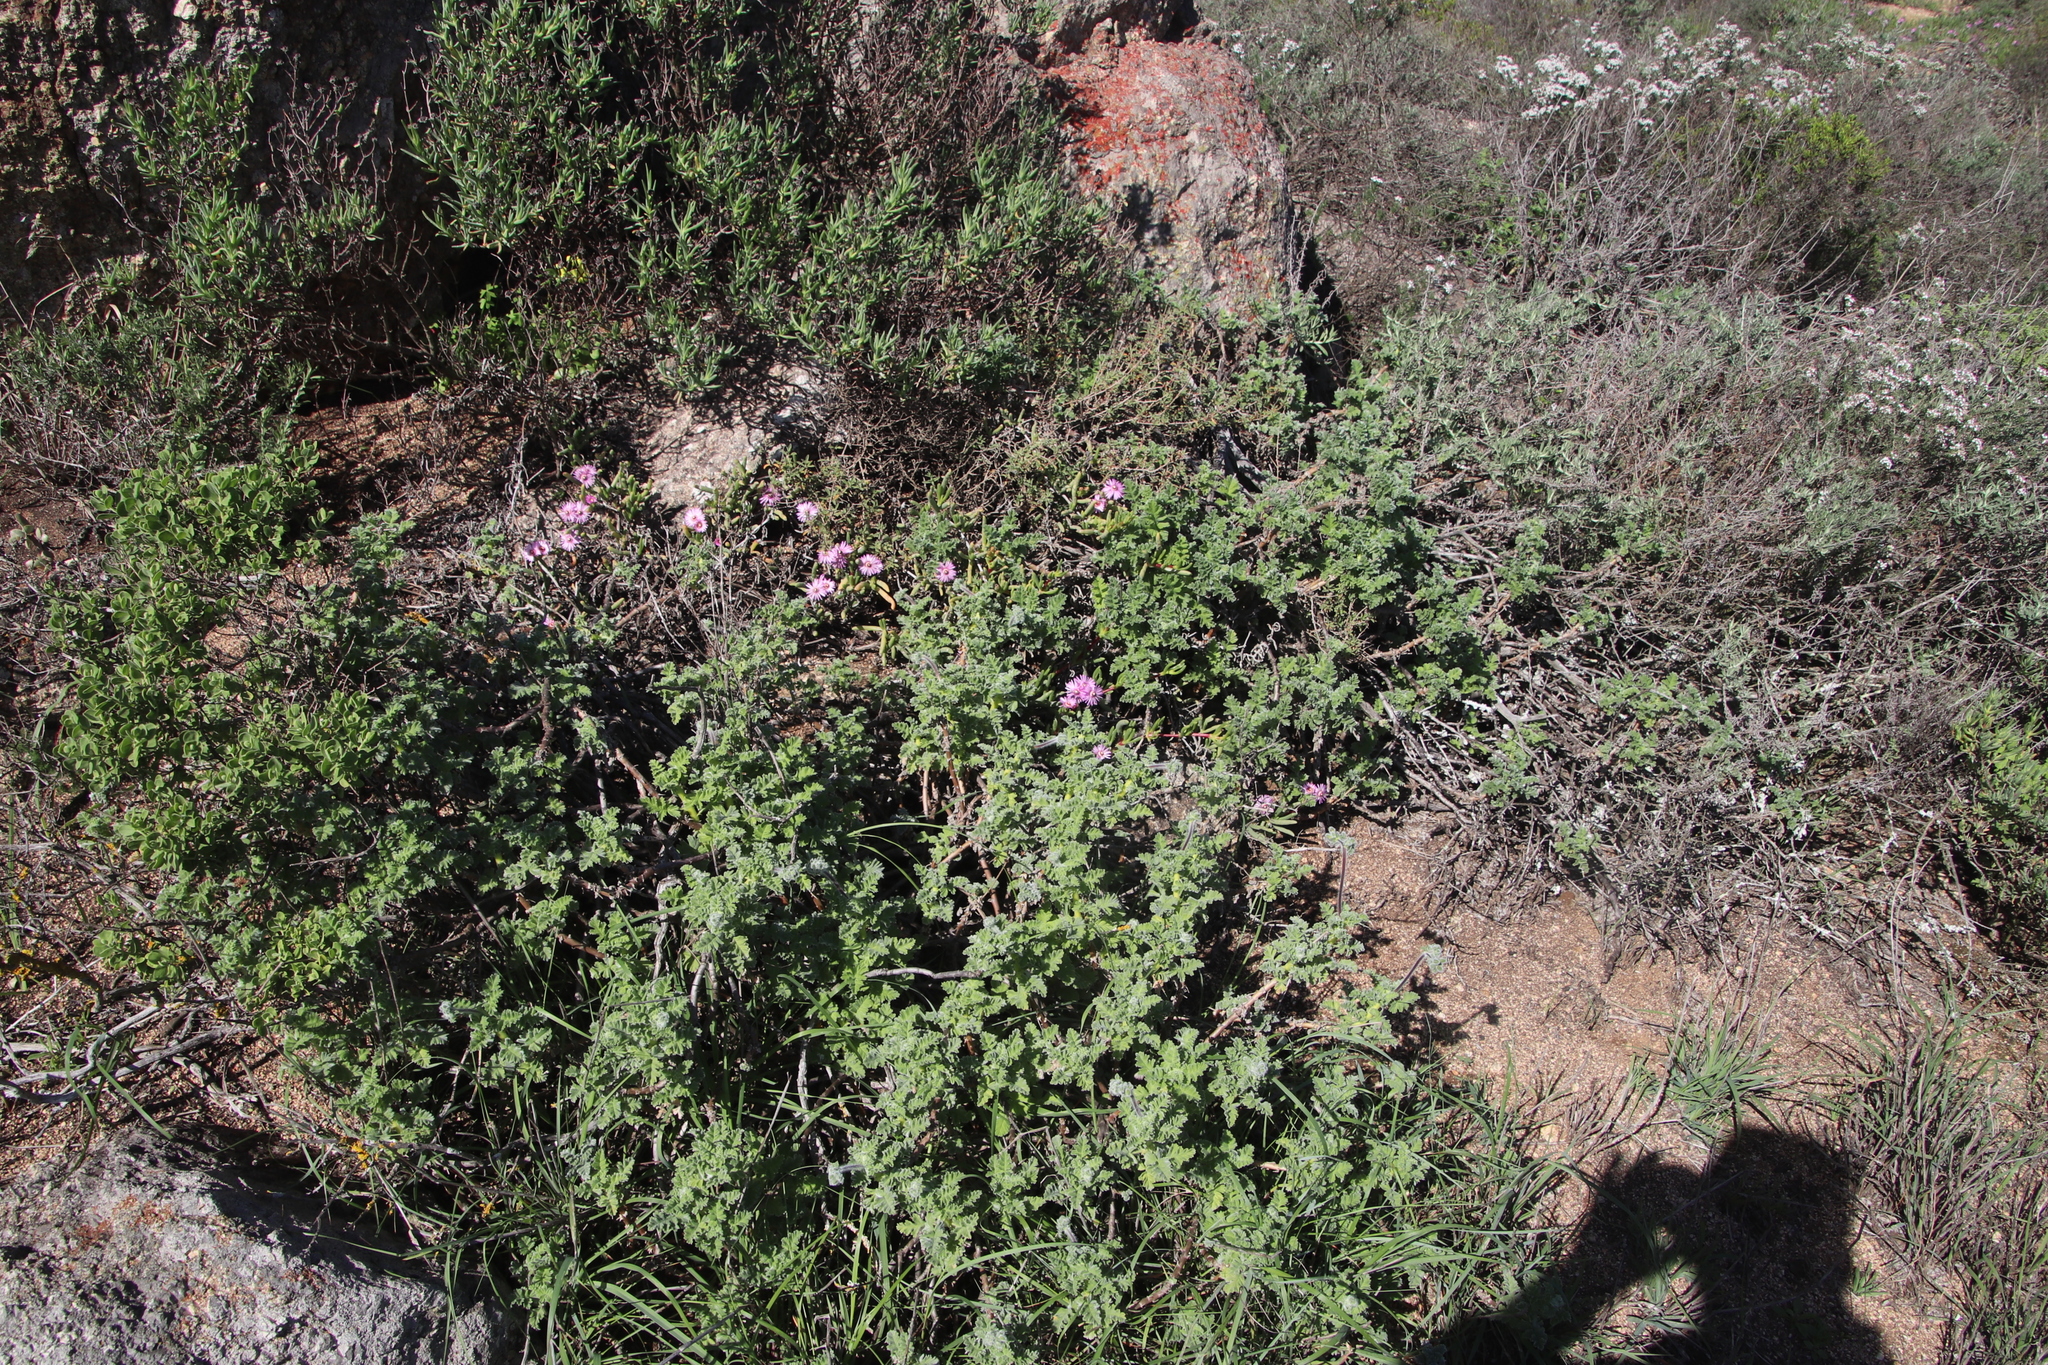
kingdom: Plantae
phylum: Tracheophyta
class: Magnoliopsida
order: Geraniales
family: Geraniaceae
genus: Pelargonium
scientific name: Pelargonium fulgidum
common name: Celandine-leaf pelargonium
